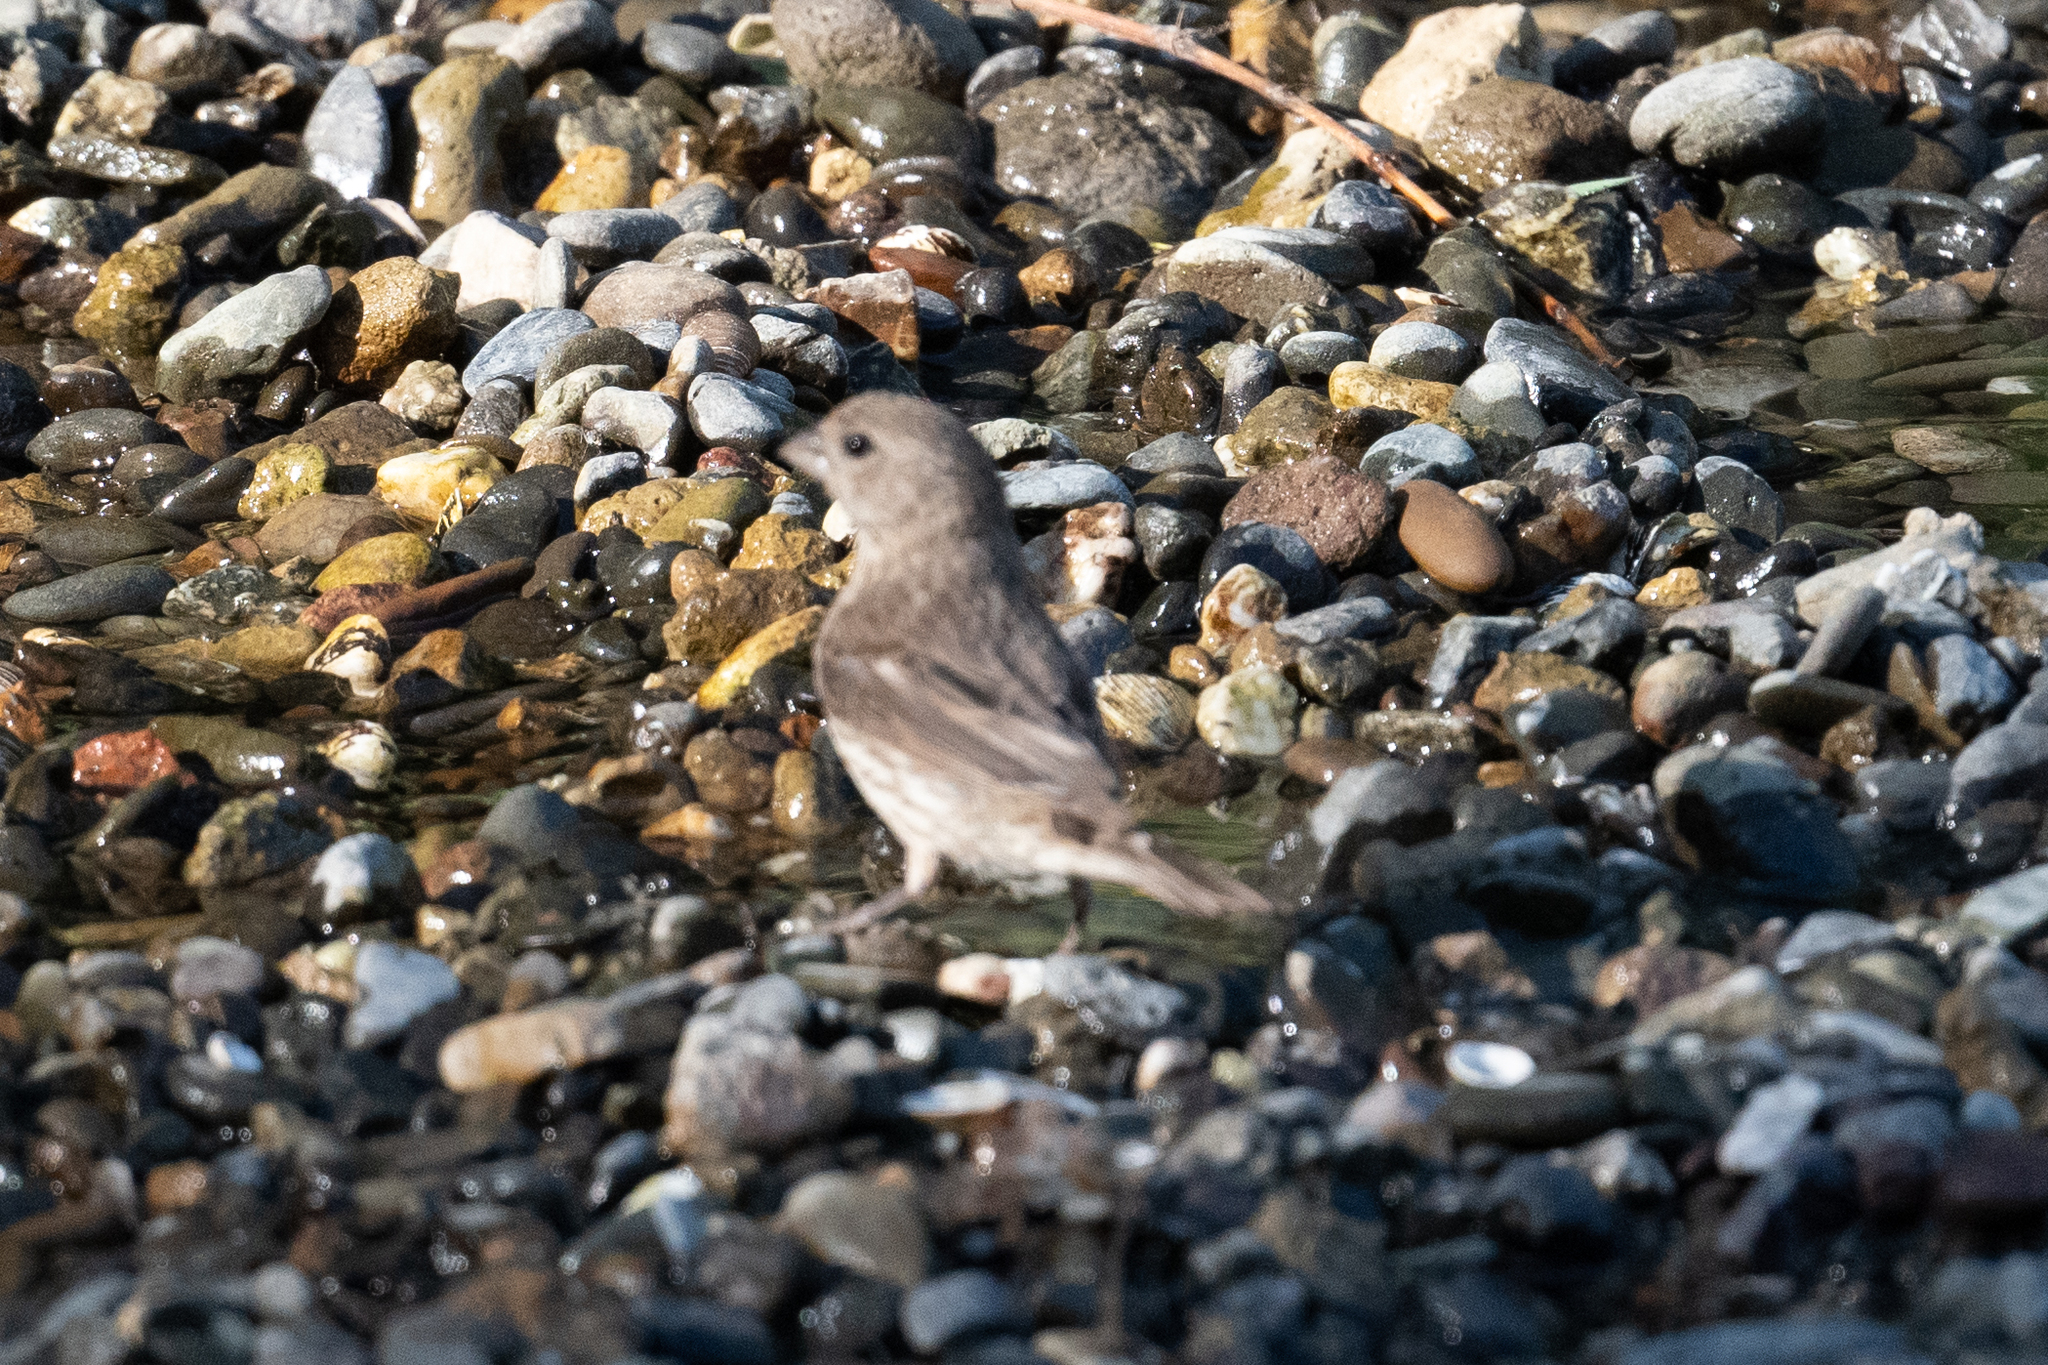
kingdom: Animalia
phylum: Chordata
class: Aves
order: Passeriformes
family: Fringillidae
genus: Haemorhous
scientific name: Haemorhous mexicanus
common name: House finch
